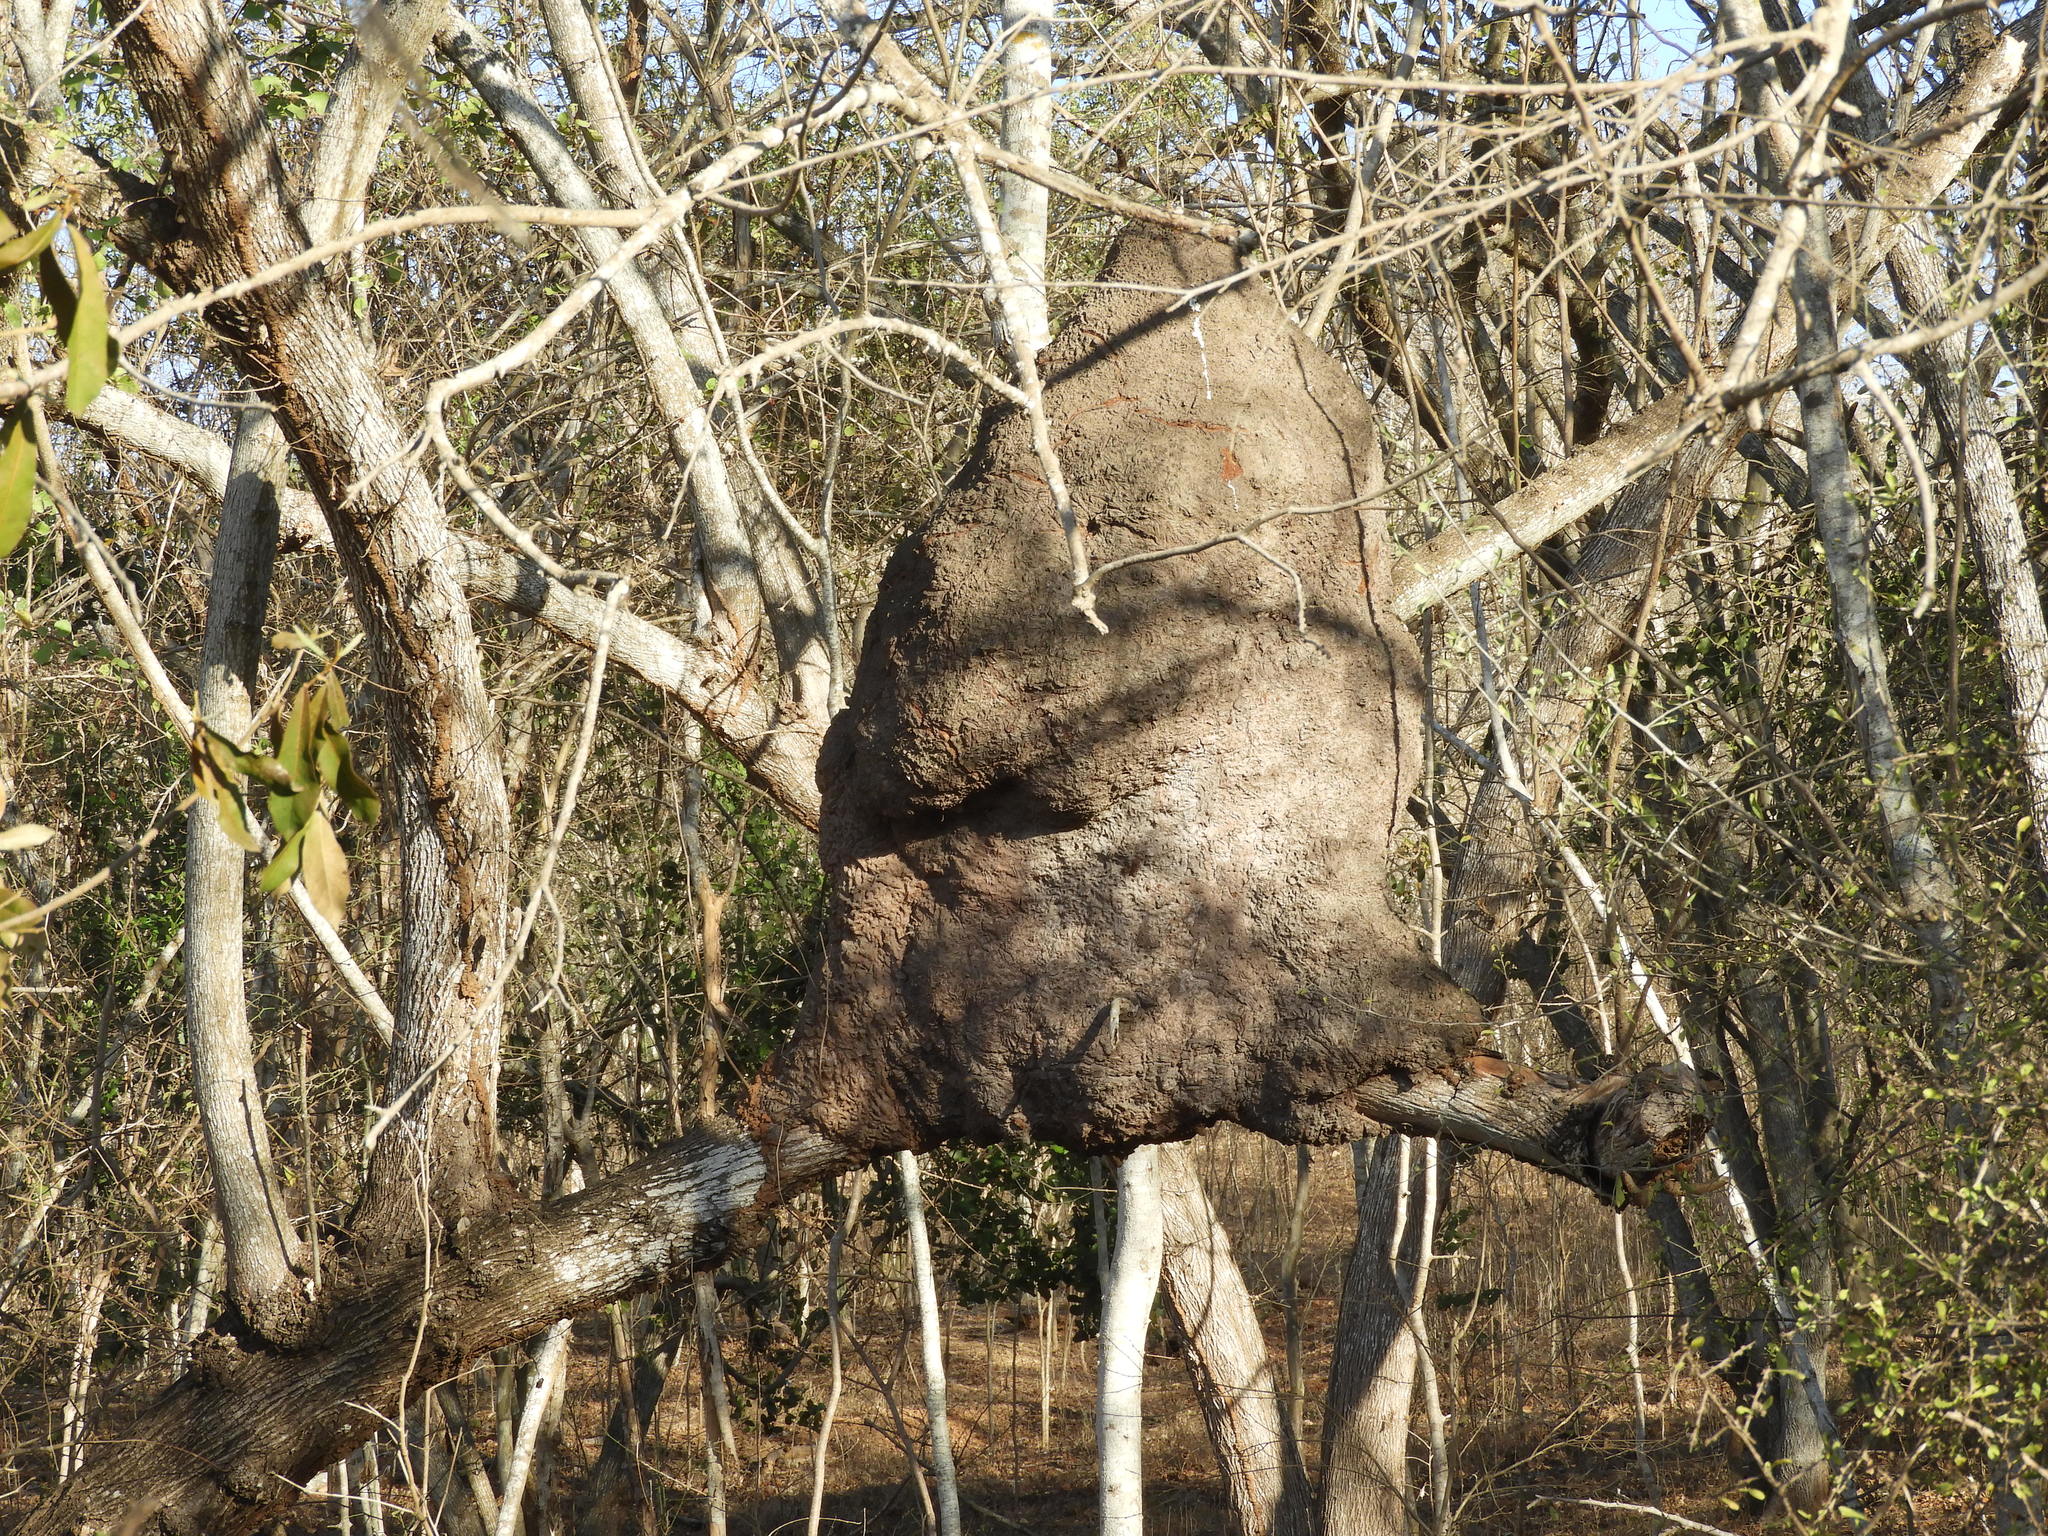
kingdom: Animalia
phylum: Arthropoda
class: Insecta
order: Blattodea
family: Termitidae
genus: Nasutitermes
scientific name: Nasutitermes nigriceps
